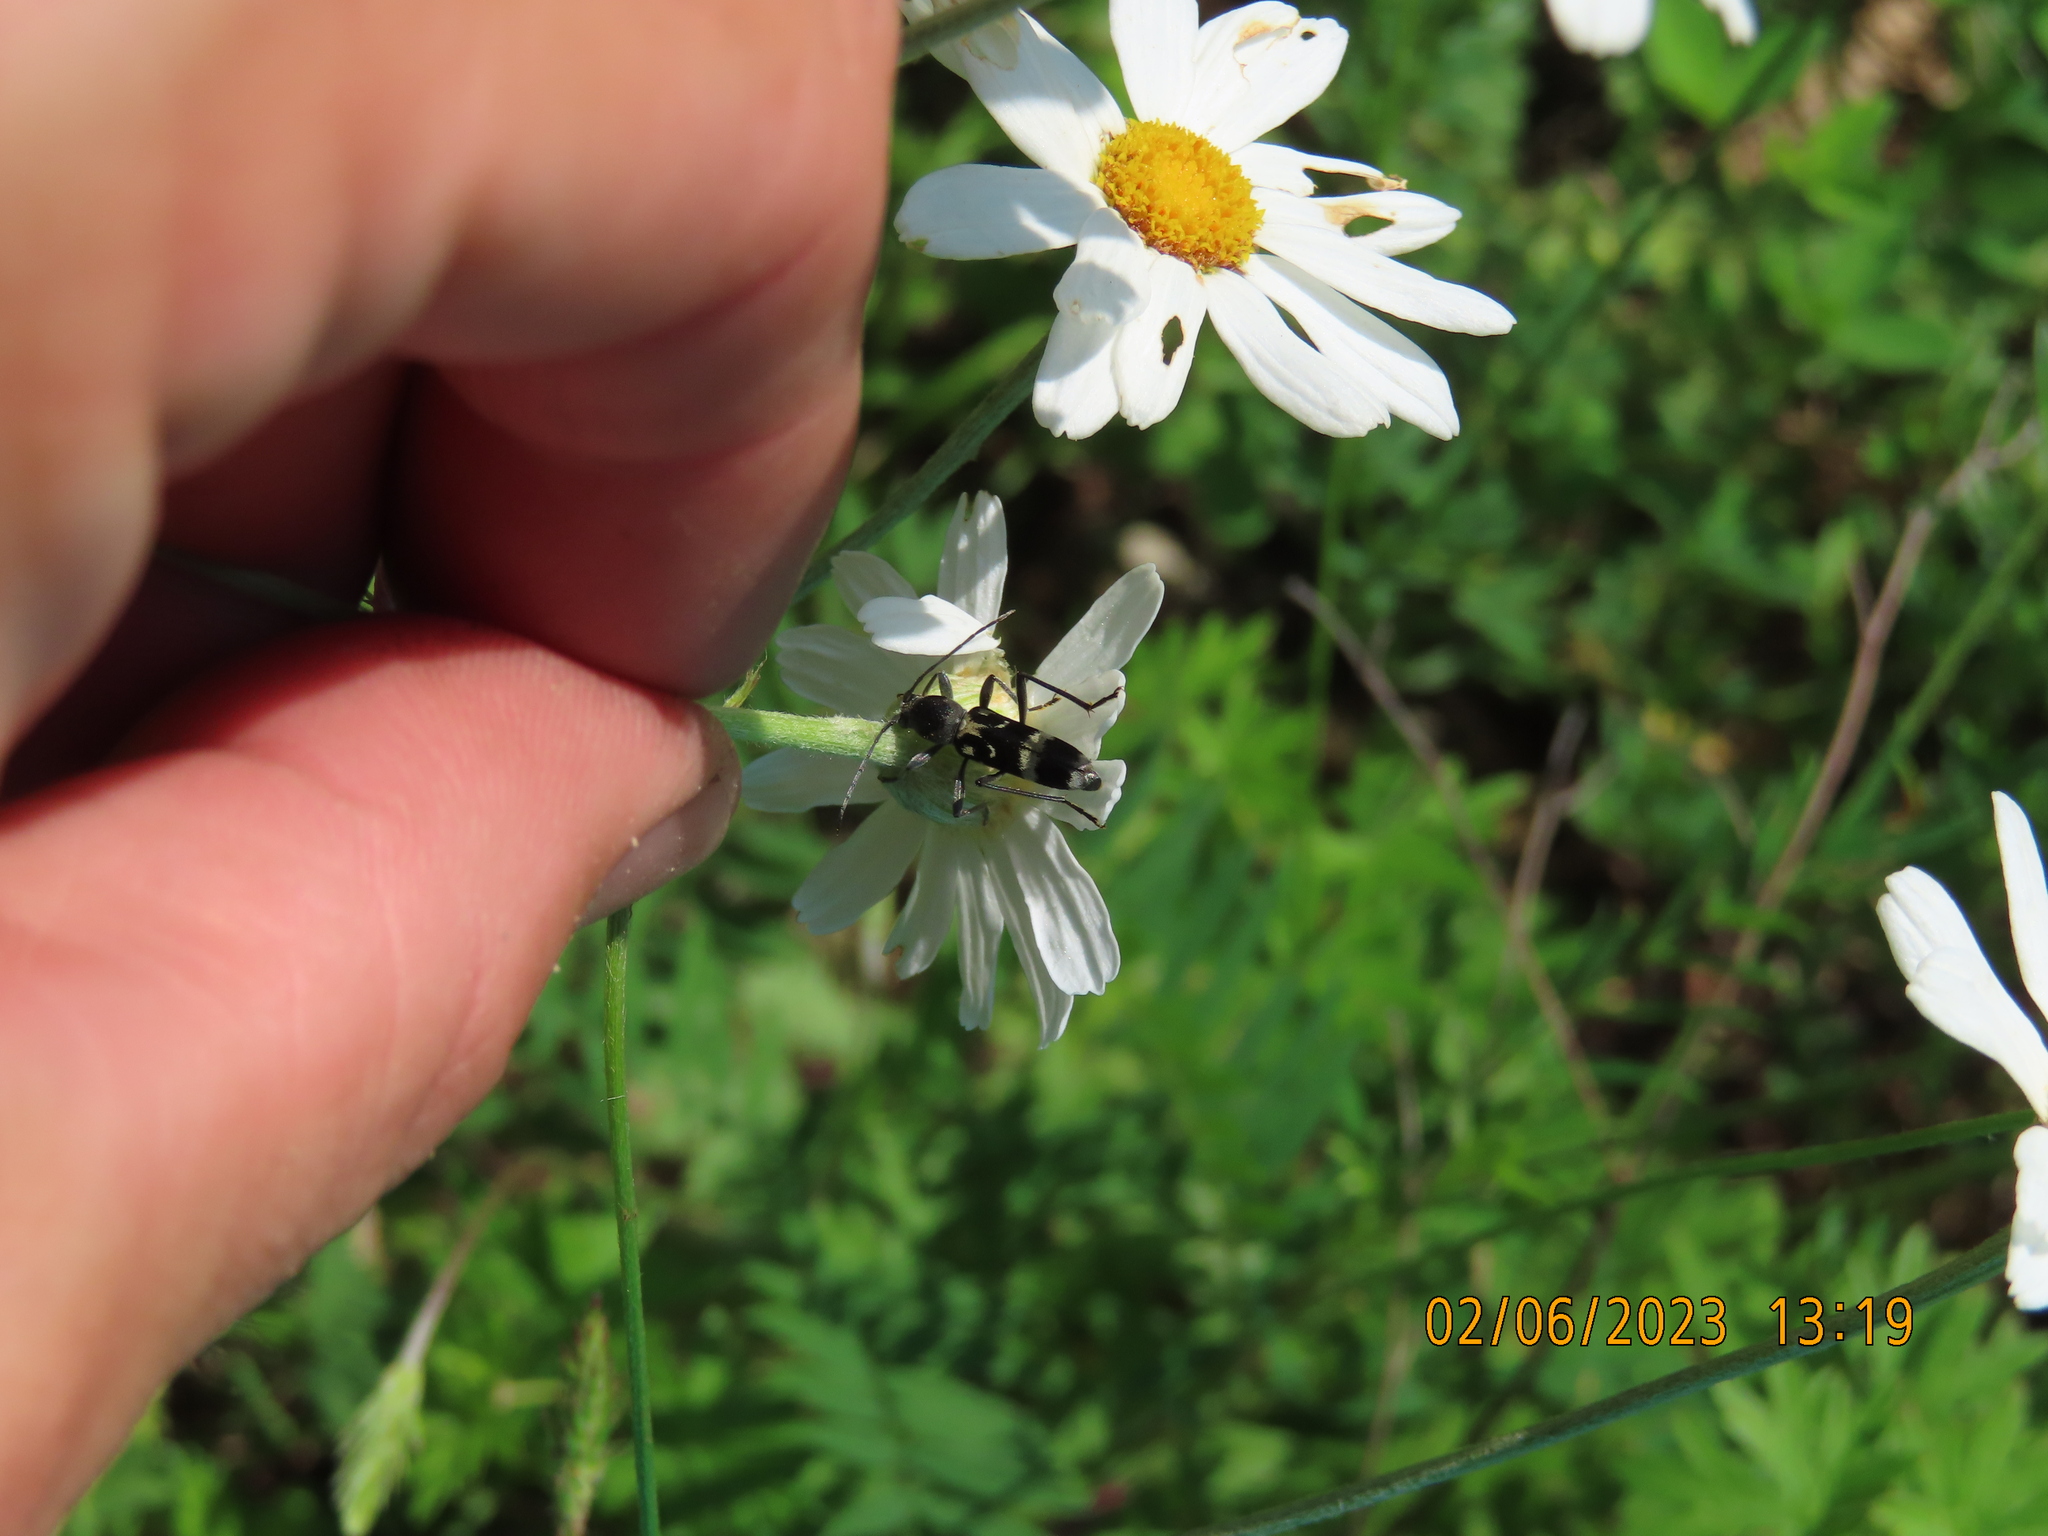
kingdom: Animalia
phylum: Arthropoda
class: Insecta
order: Coleoptera
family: Cerambycidae
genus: Chlorophorus
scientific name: Chlorophorus figuratus
